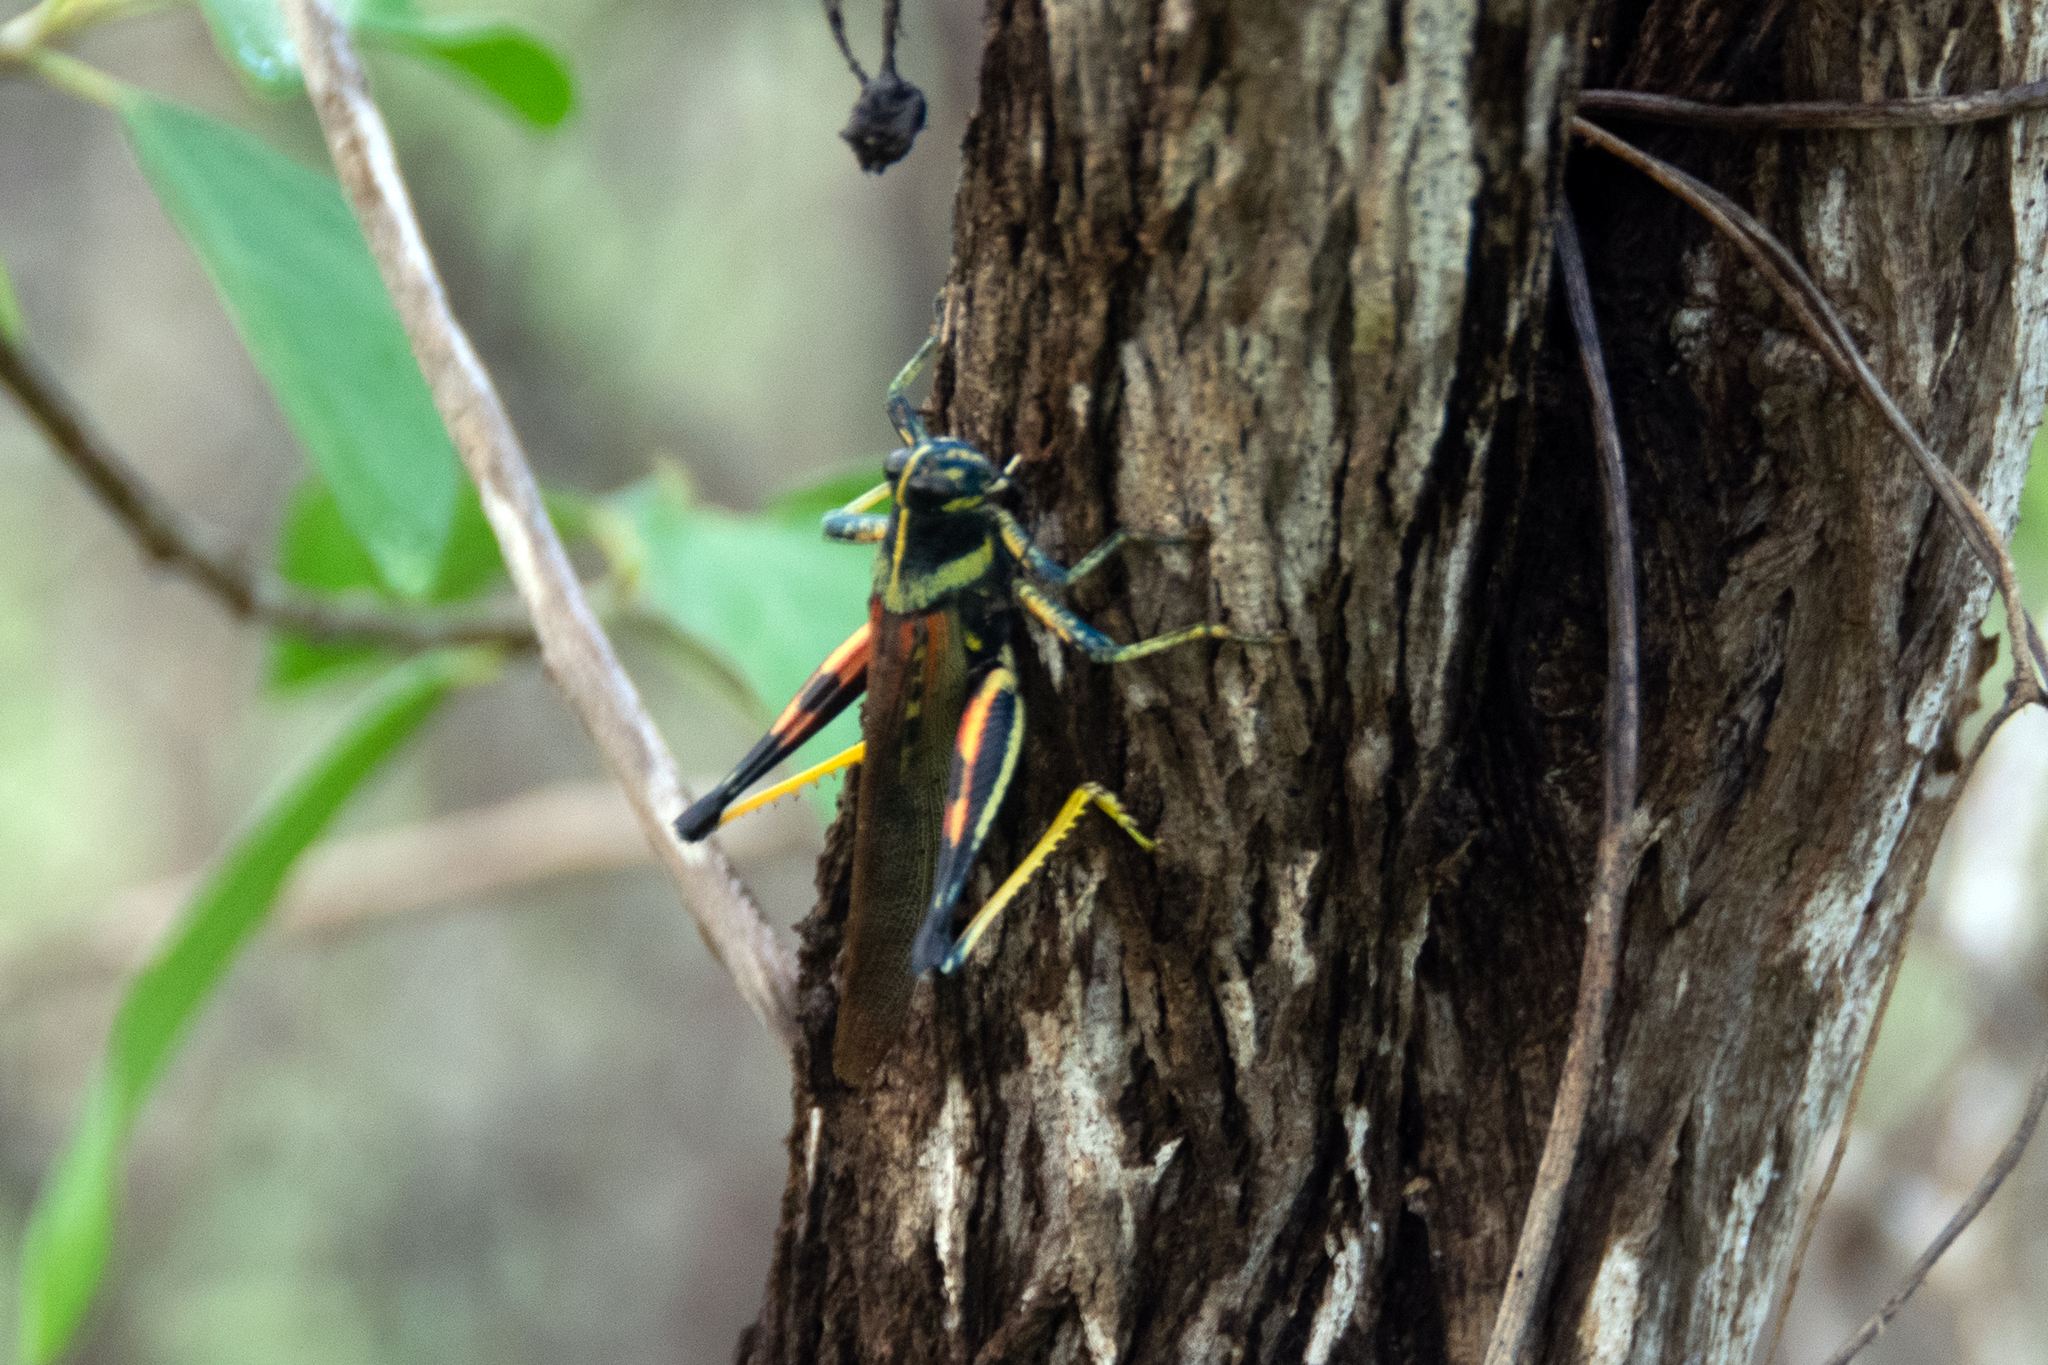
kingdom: Animalia
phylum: Arthropoda
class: Insecta
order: Orthoptera
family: Acrididae
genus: Schistocerca
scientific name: Schistocerca melanocera
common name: Large painted locust
